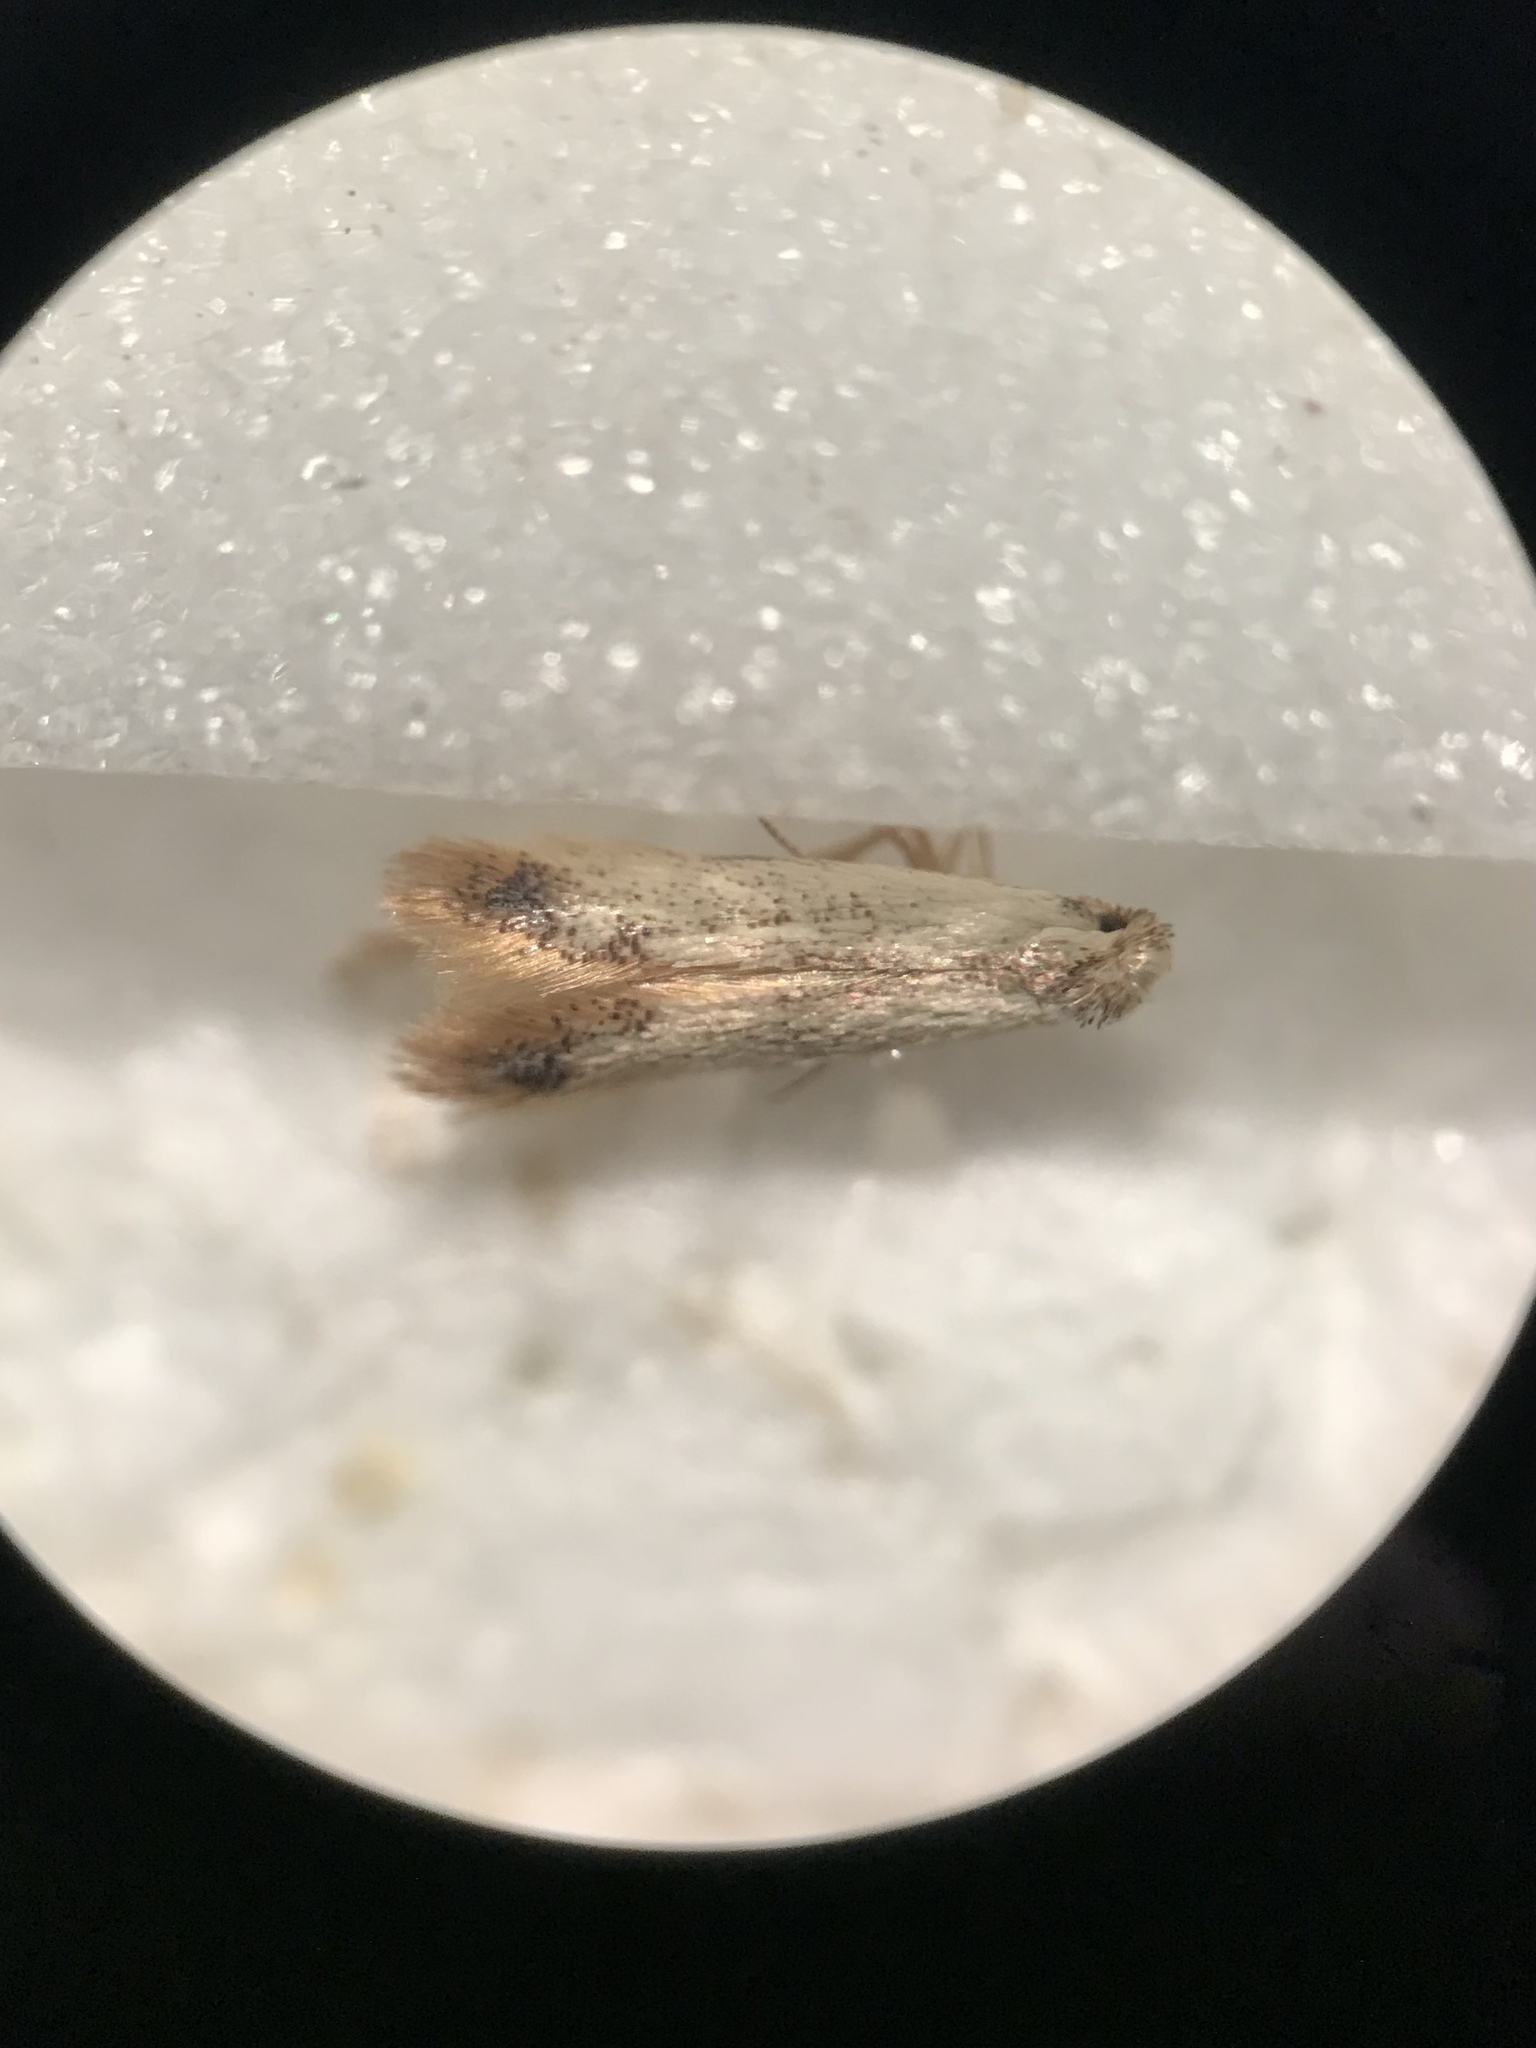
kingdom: Animalia
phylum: Arthropoda
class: Insecta
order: Lepidoptera
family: Tischeriidae
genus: Coptotriche
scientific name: Coptotriche purinosella
